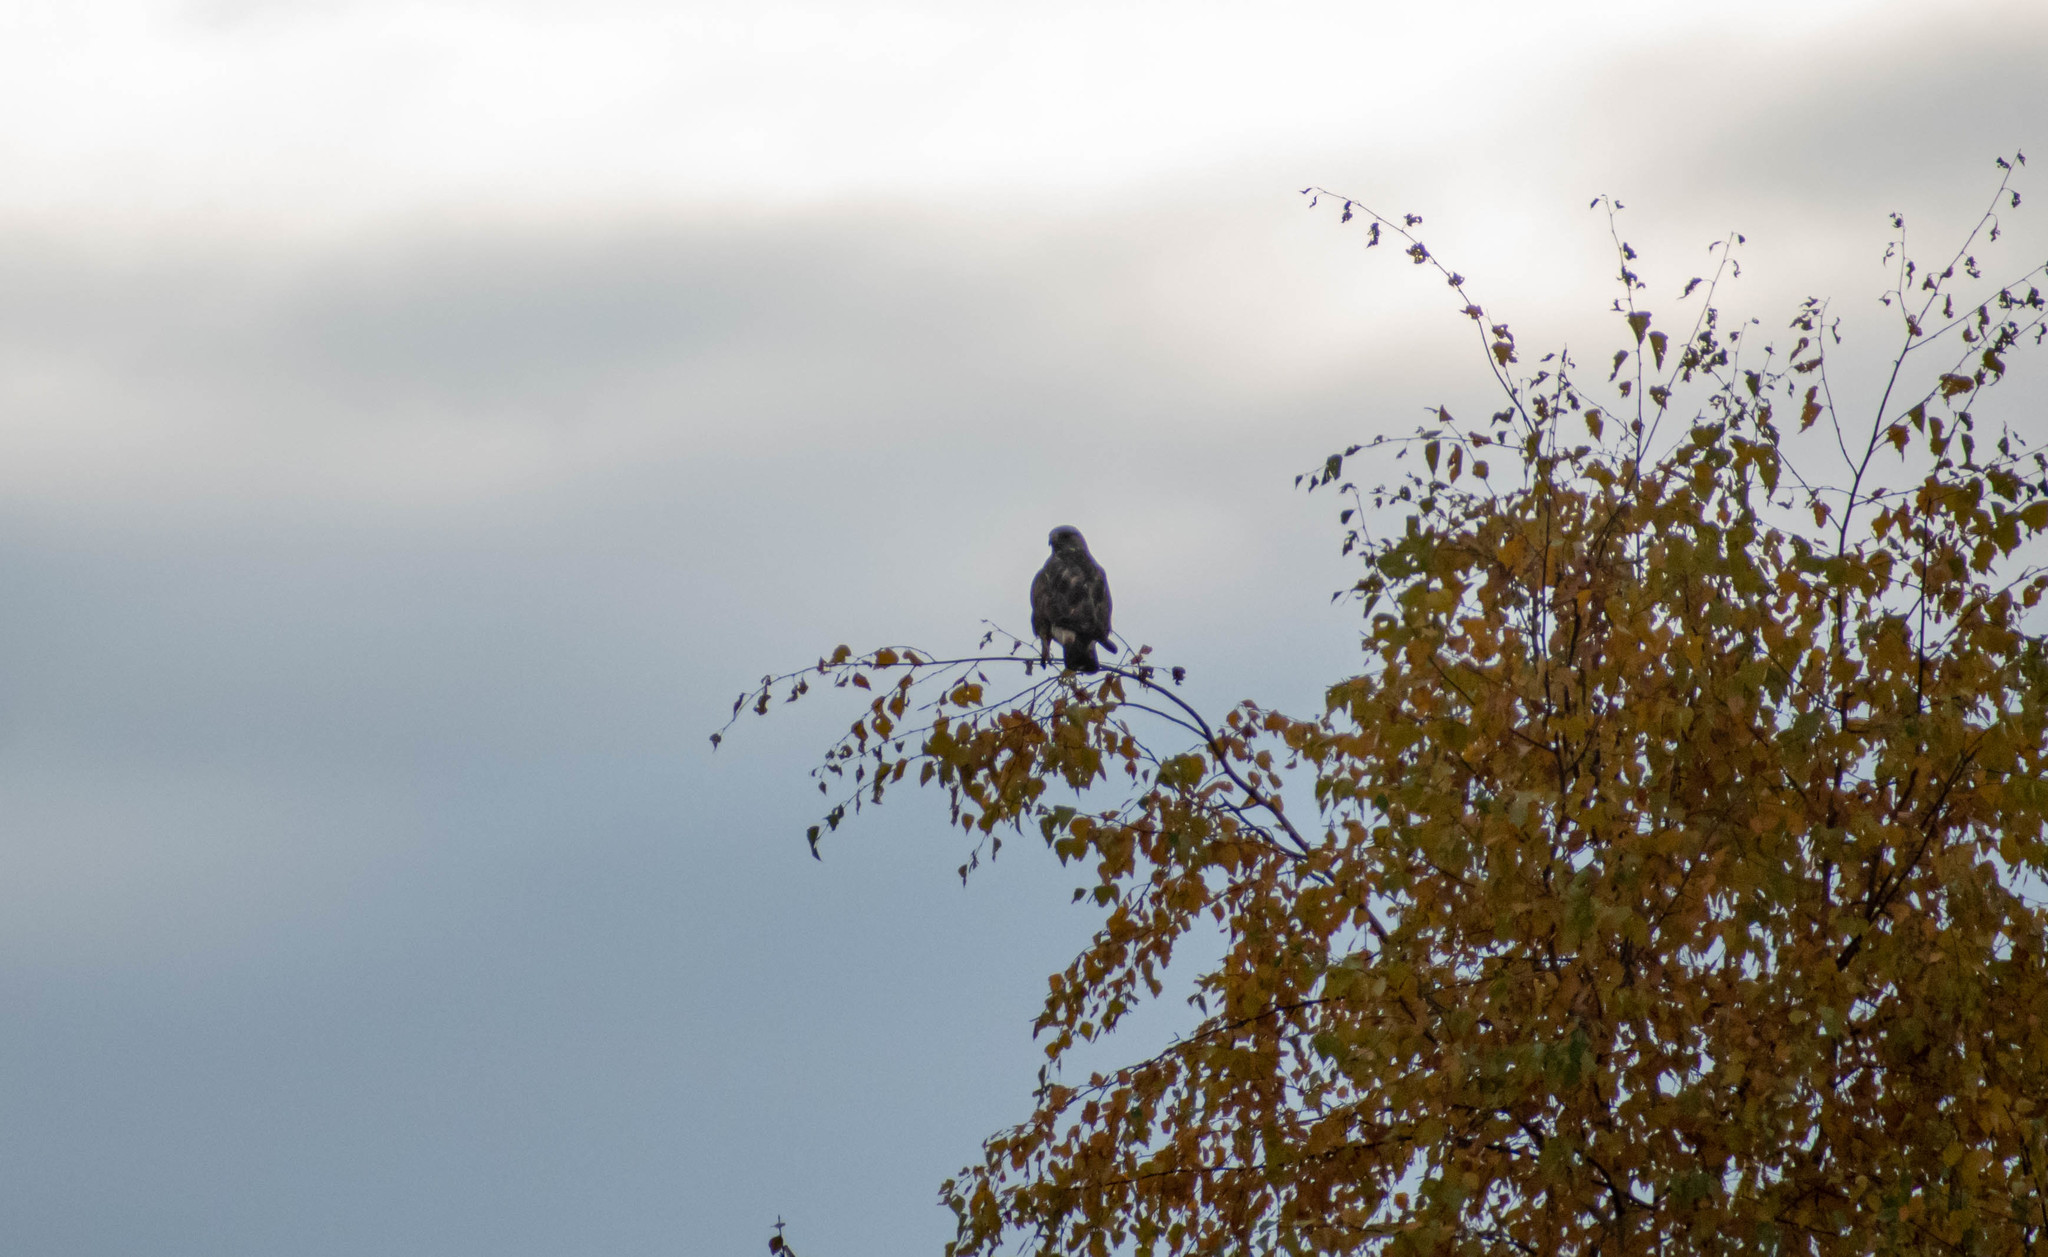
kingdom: Animalia
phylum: Chordata
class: Aves
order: Accipitriformes
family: Accipitridae
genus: Buteo
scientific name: Buteo lagopus
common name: Rough-legged buzzard
